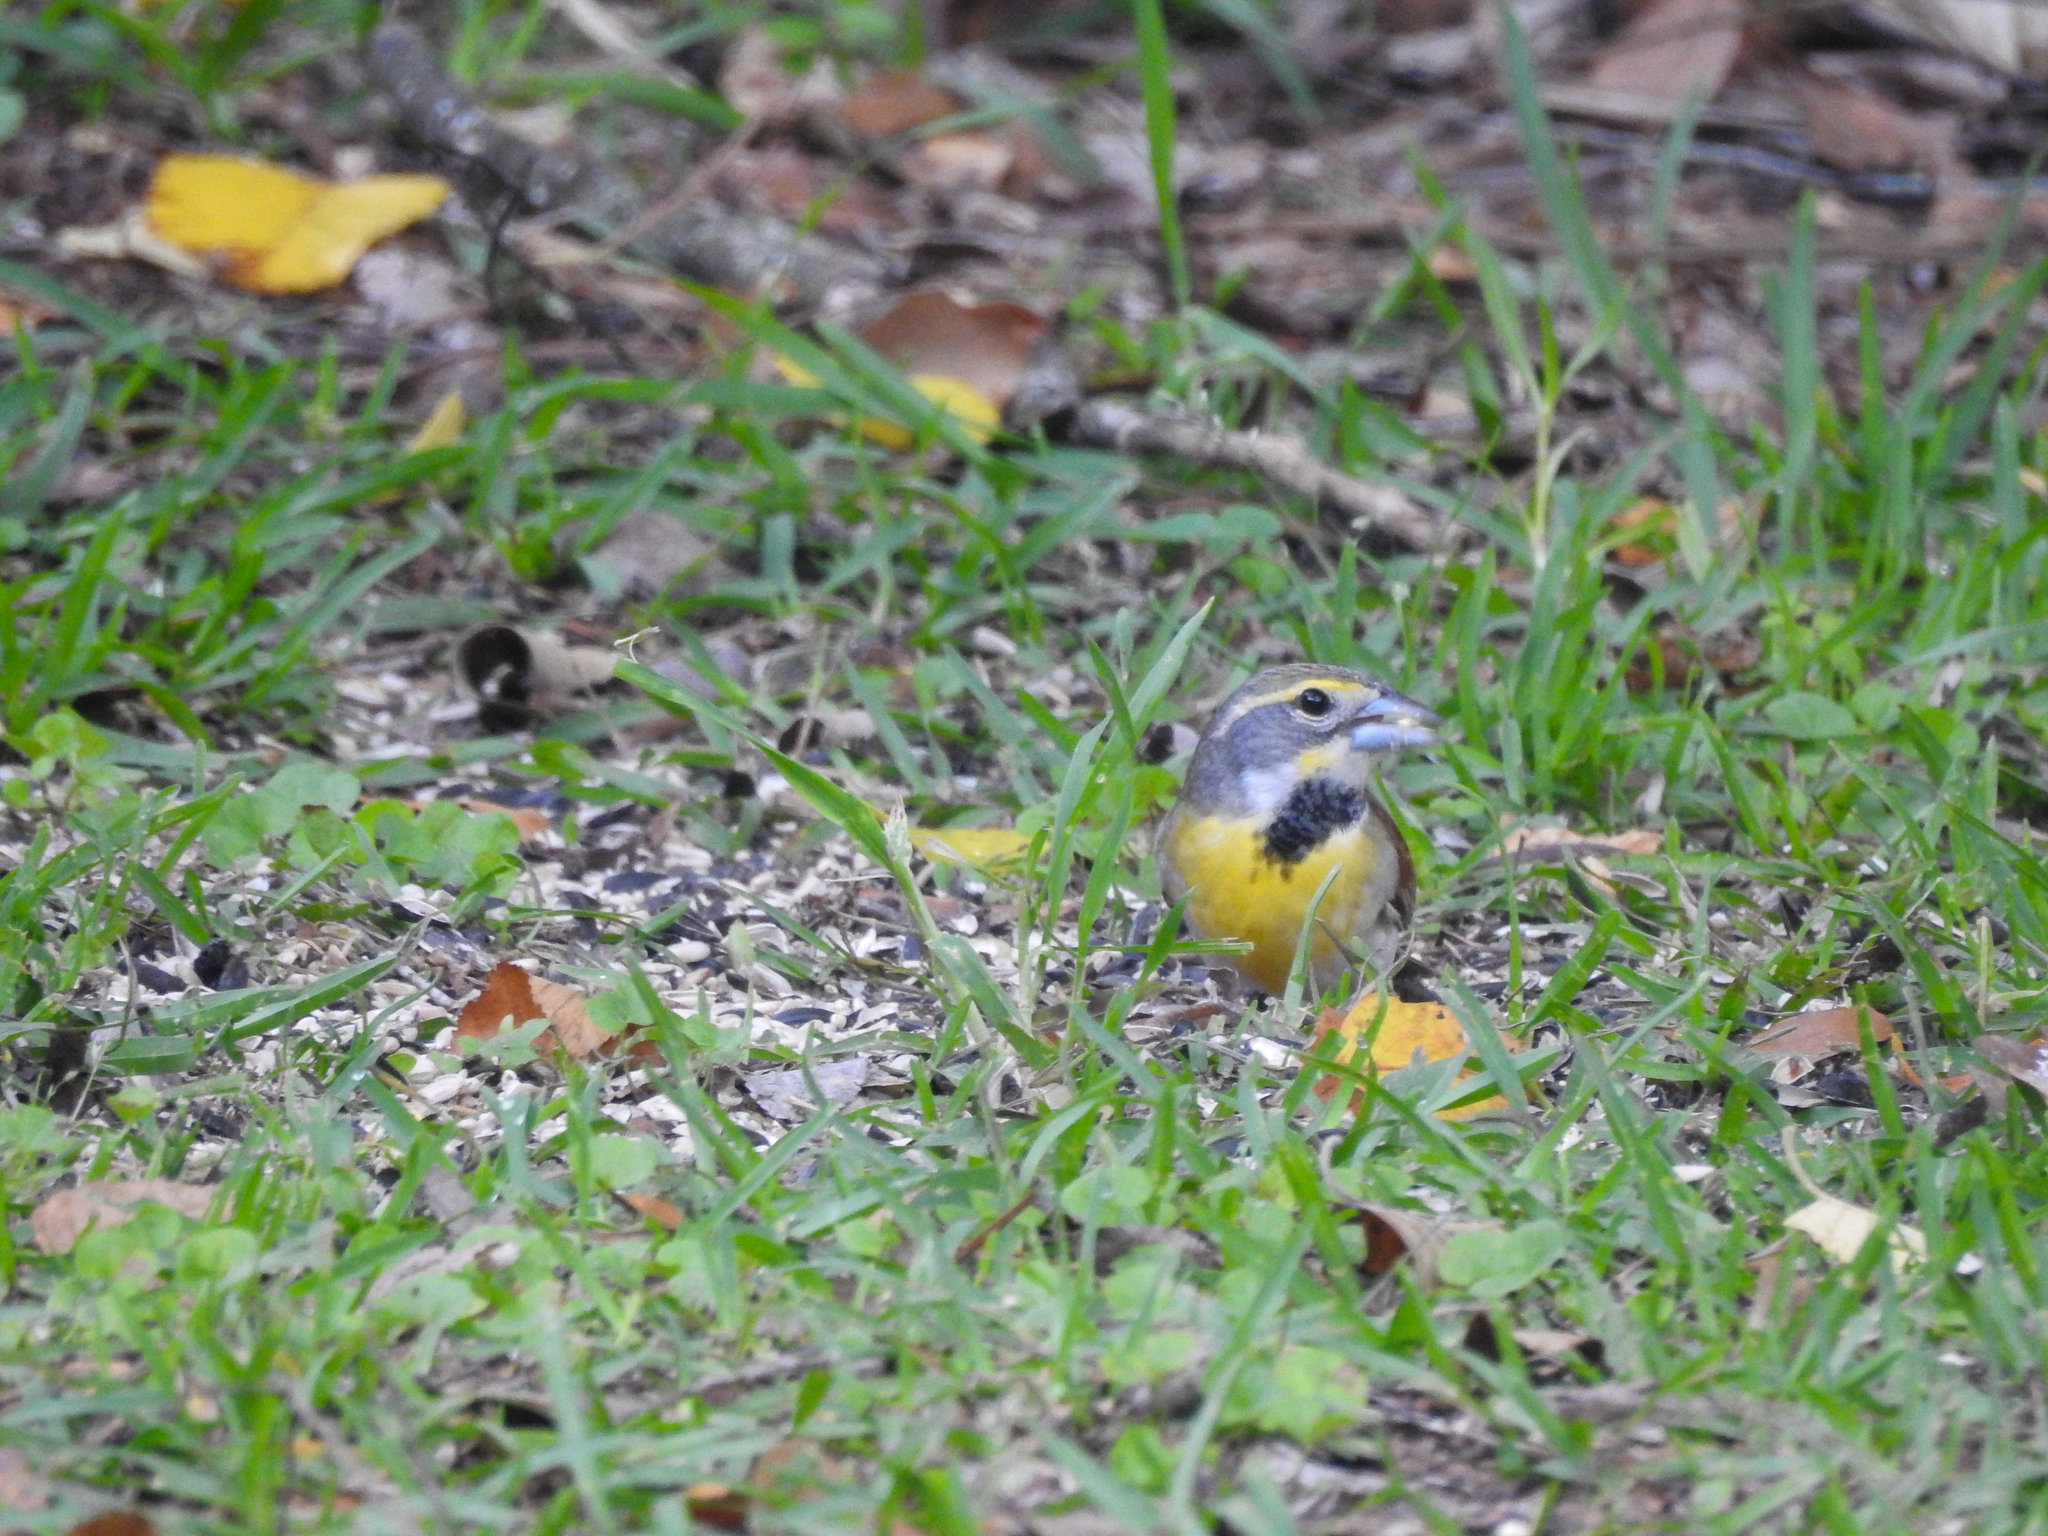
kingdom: Animalia
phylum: Chordata
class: Aves
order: Passeriformes
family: Cardinalidae
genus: Spiza
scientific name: Spiza americana
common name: Dickcissel
